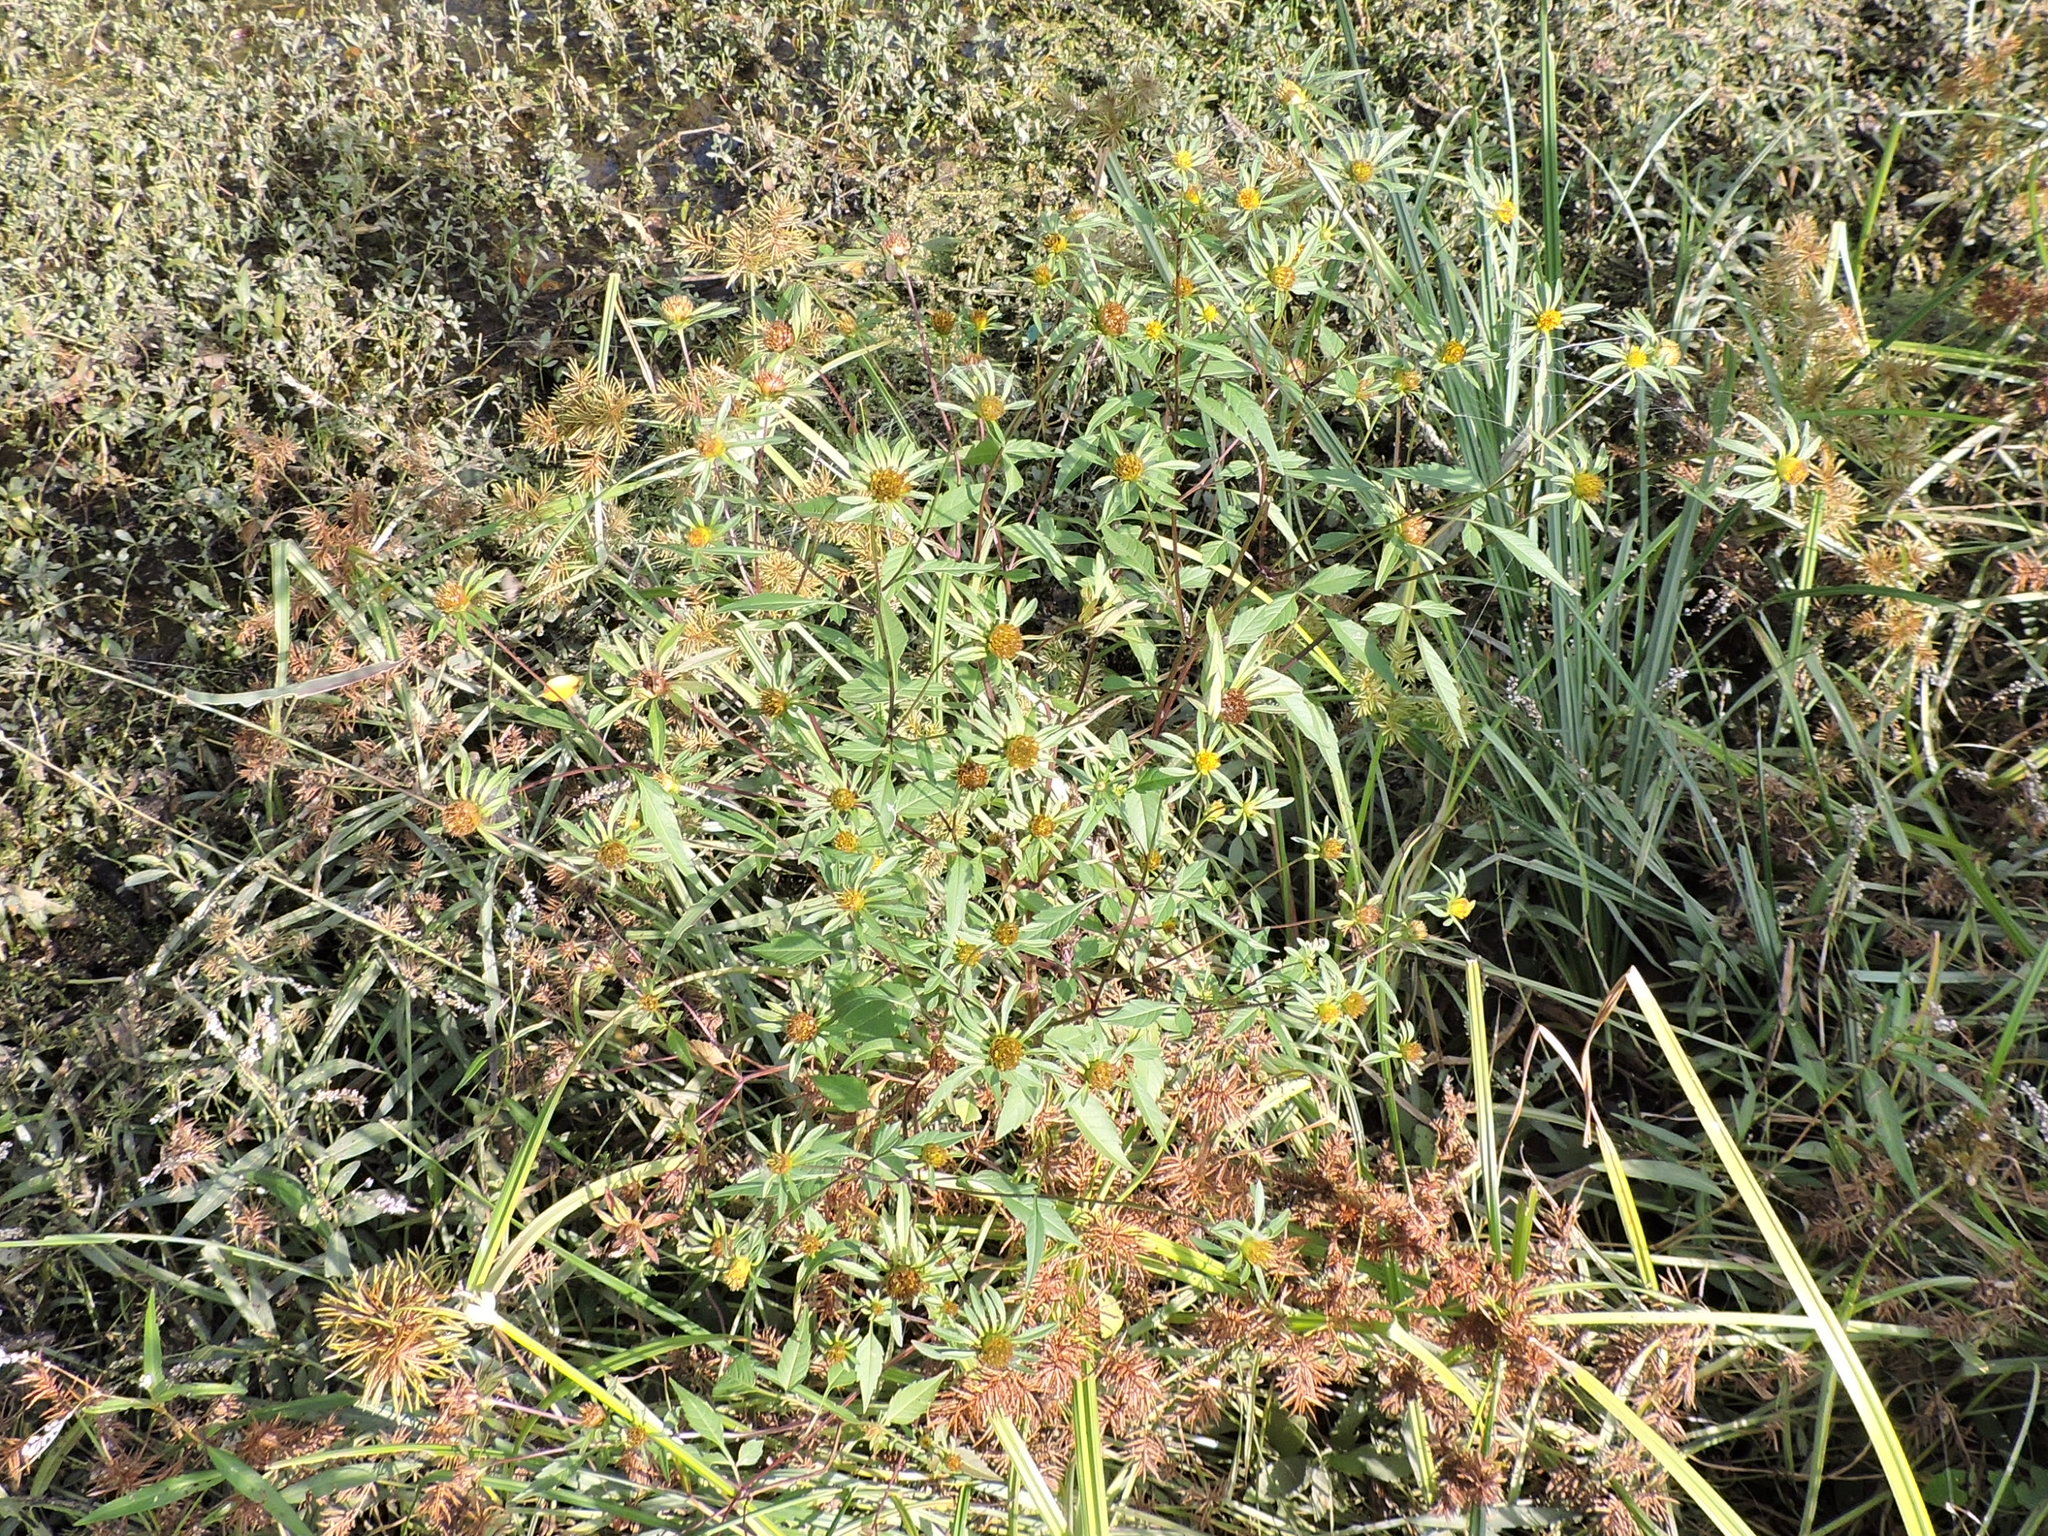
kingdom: Plantae
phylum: Tracheophyta
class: Magnoliopsida
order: Asterales
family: Asteraceae
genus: Bidens
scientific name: Bidens frondosa
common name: Beggarticks
